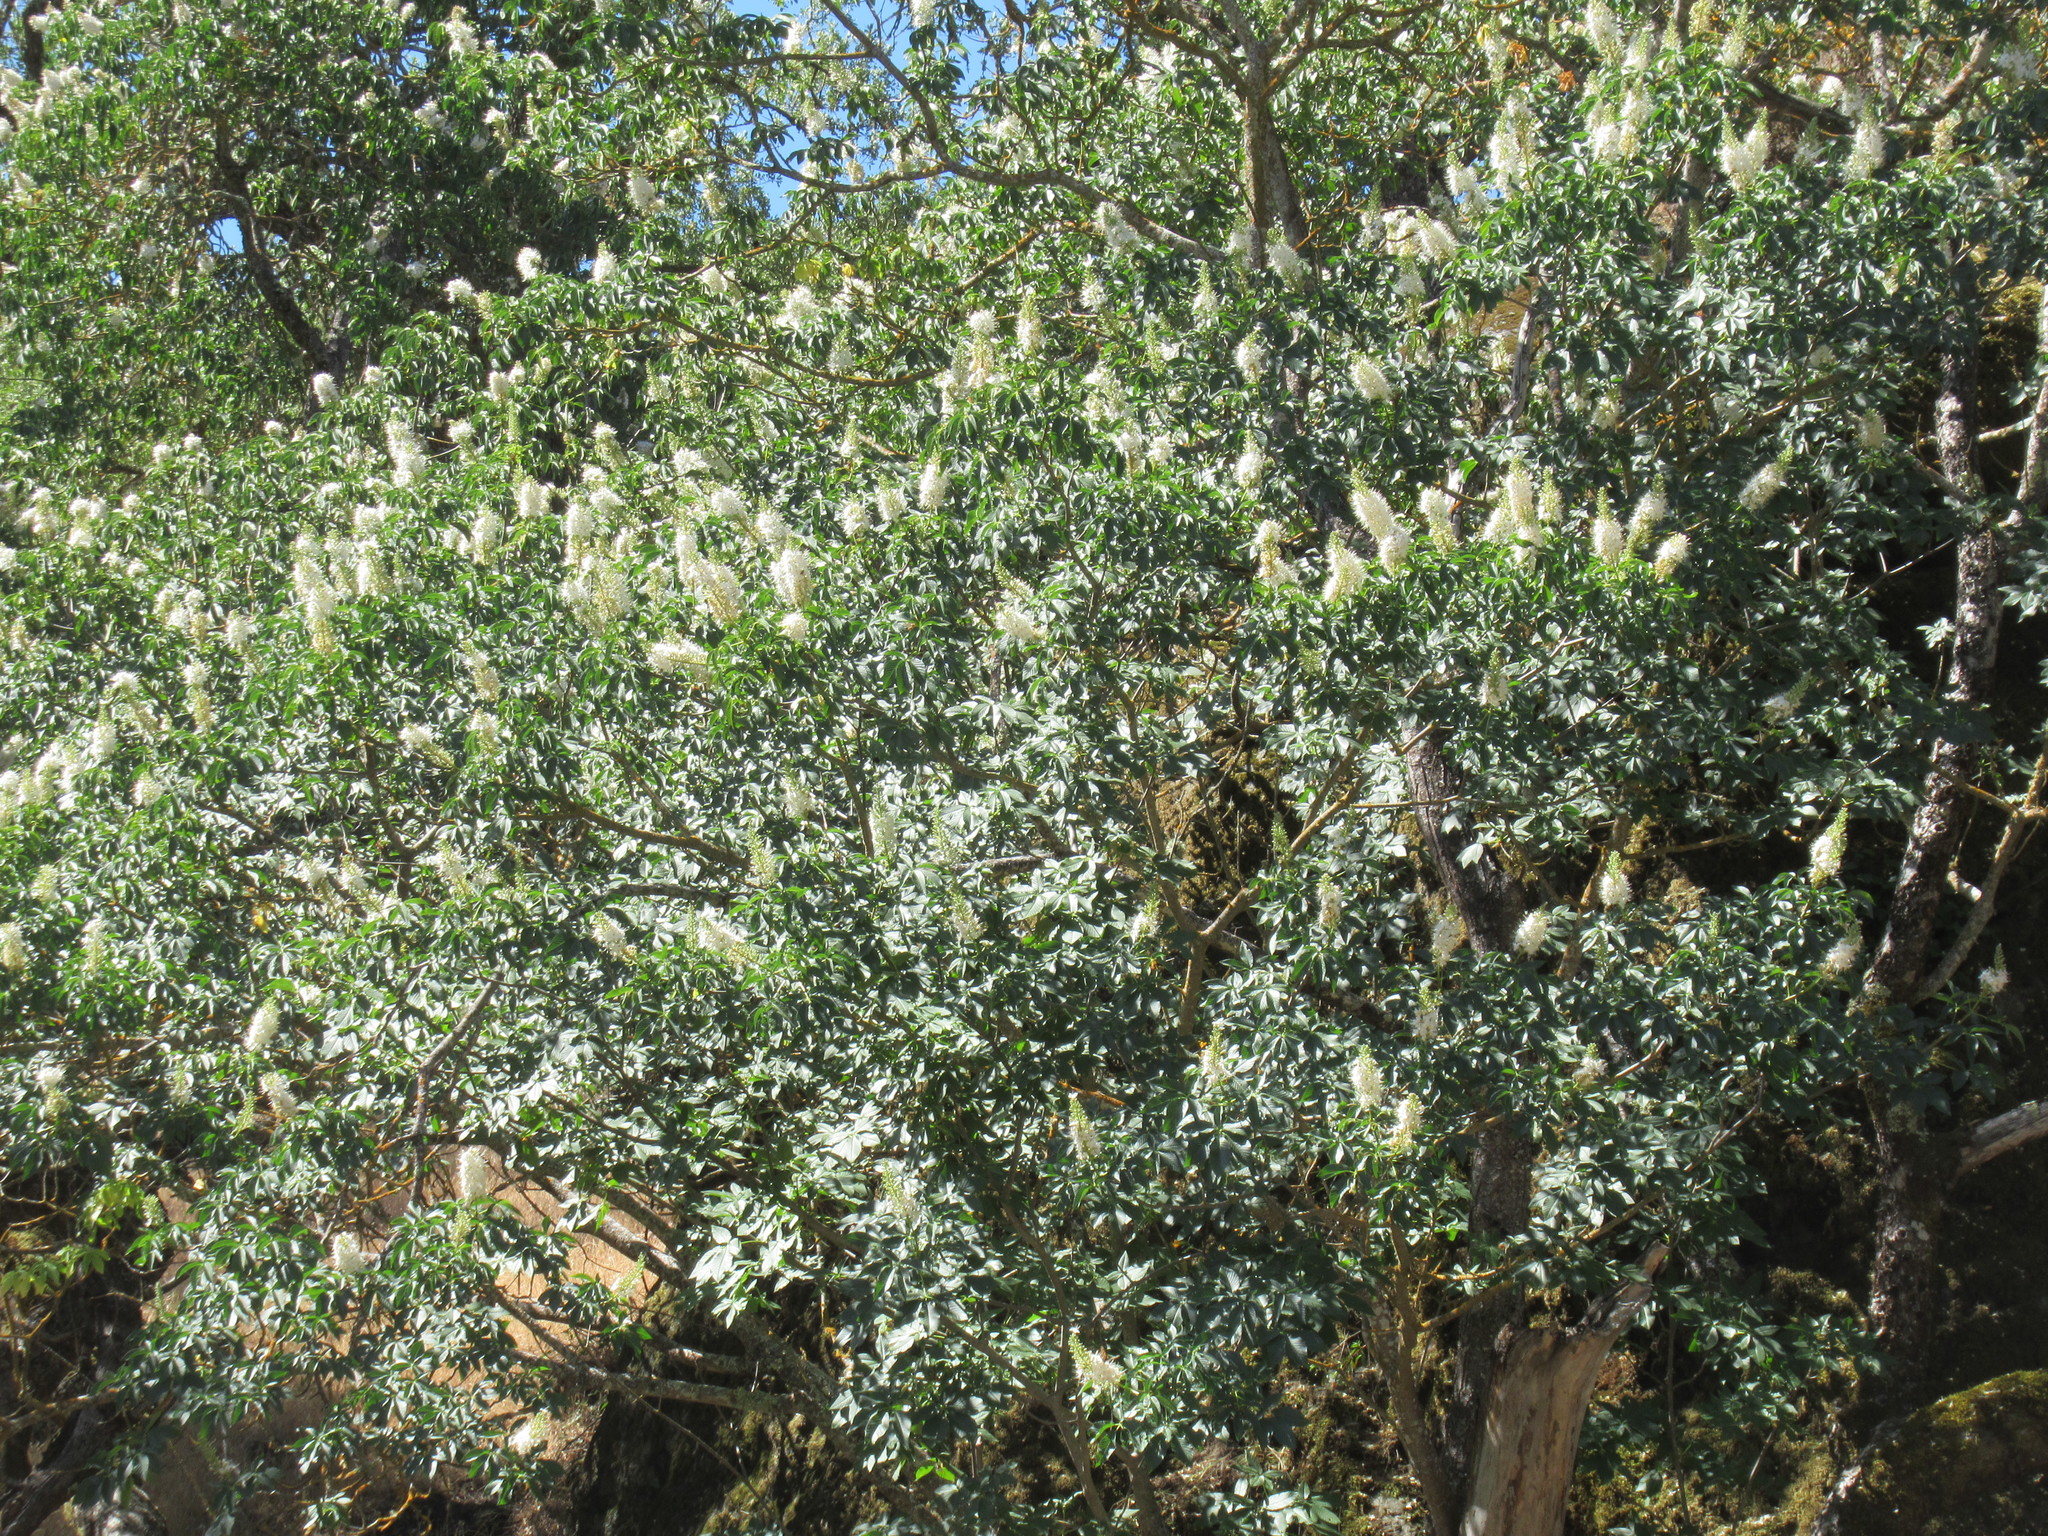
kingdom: Plantae
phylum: Tracheophyta
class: Magnoliopsida
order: Sapindales
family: Sapindaceae
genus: Aesculus
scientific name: Aesculus californica
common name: California buckeye
